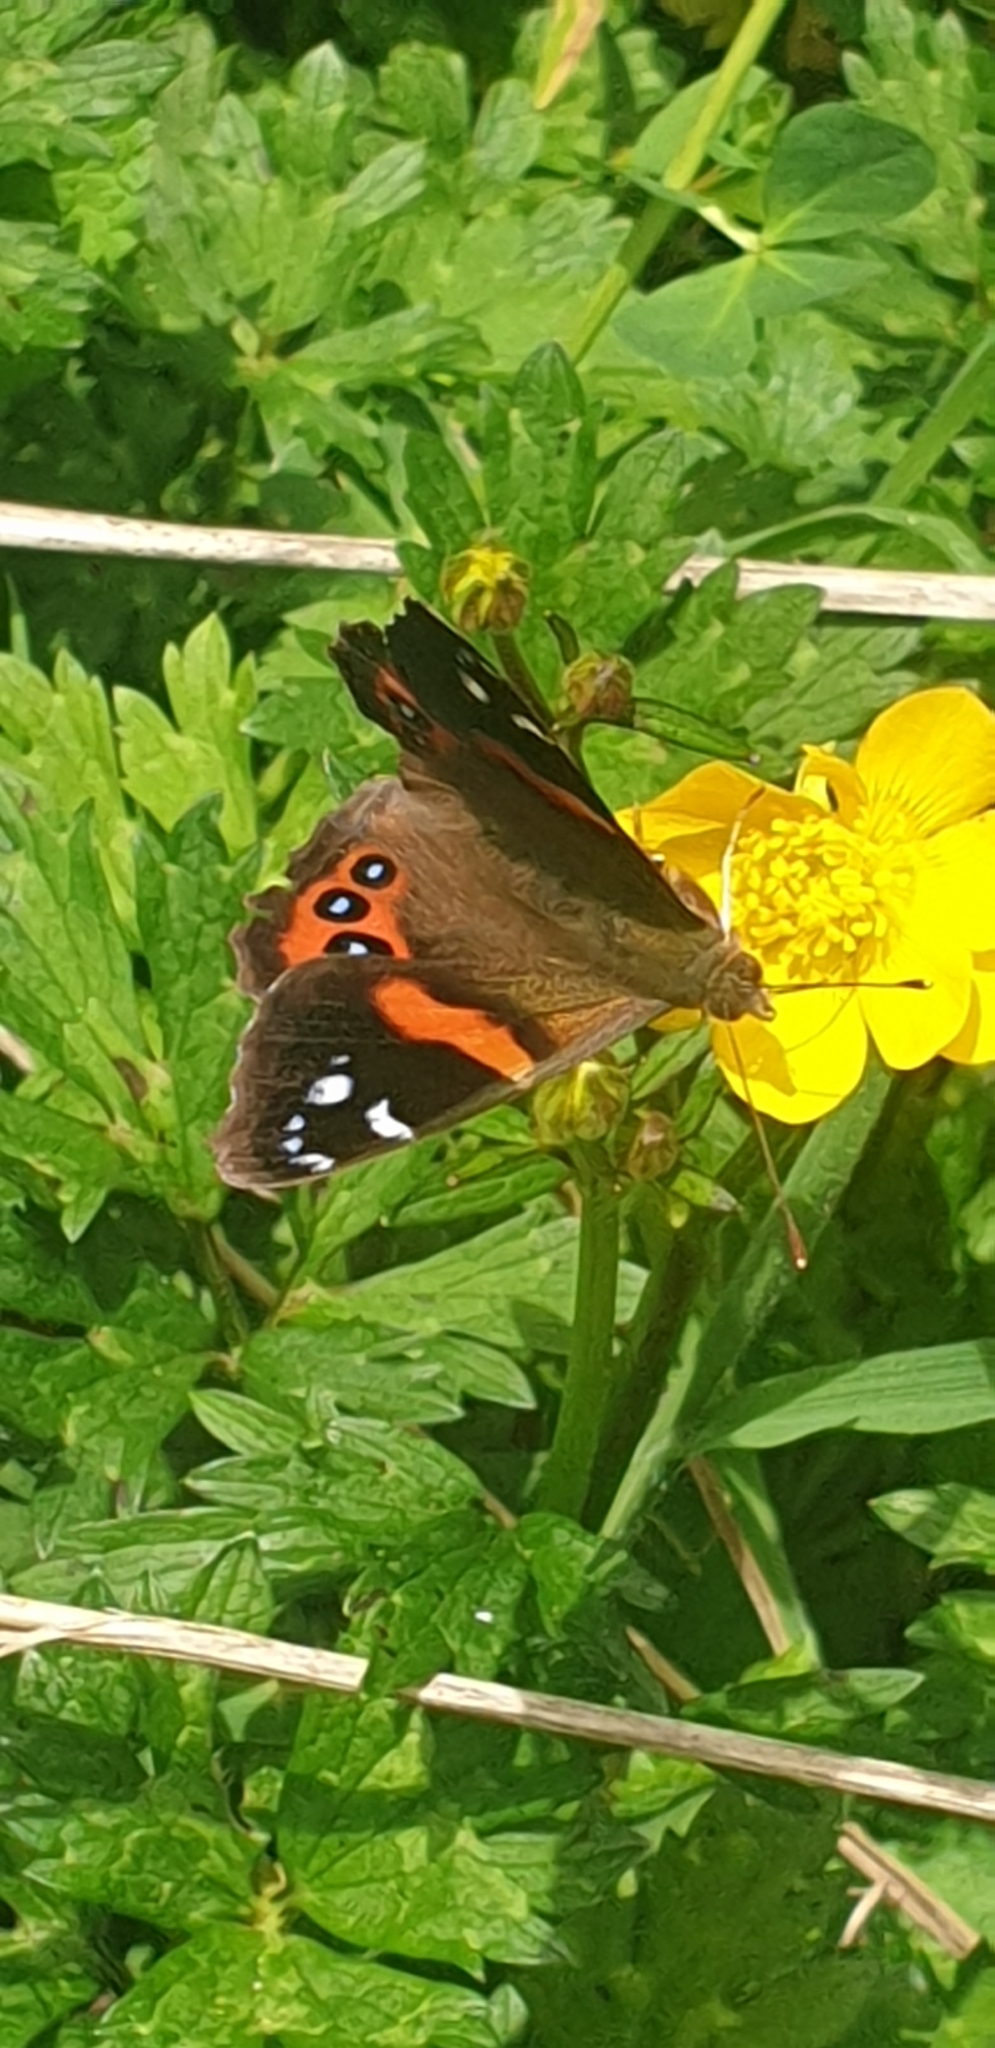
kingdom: Animalia
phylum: Arthropoda
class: Insecta
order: Lepidoptera
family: Nymphalidae
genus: Vanessa
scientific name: Vanessa gonerilla
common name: New zealand red admiral
